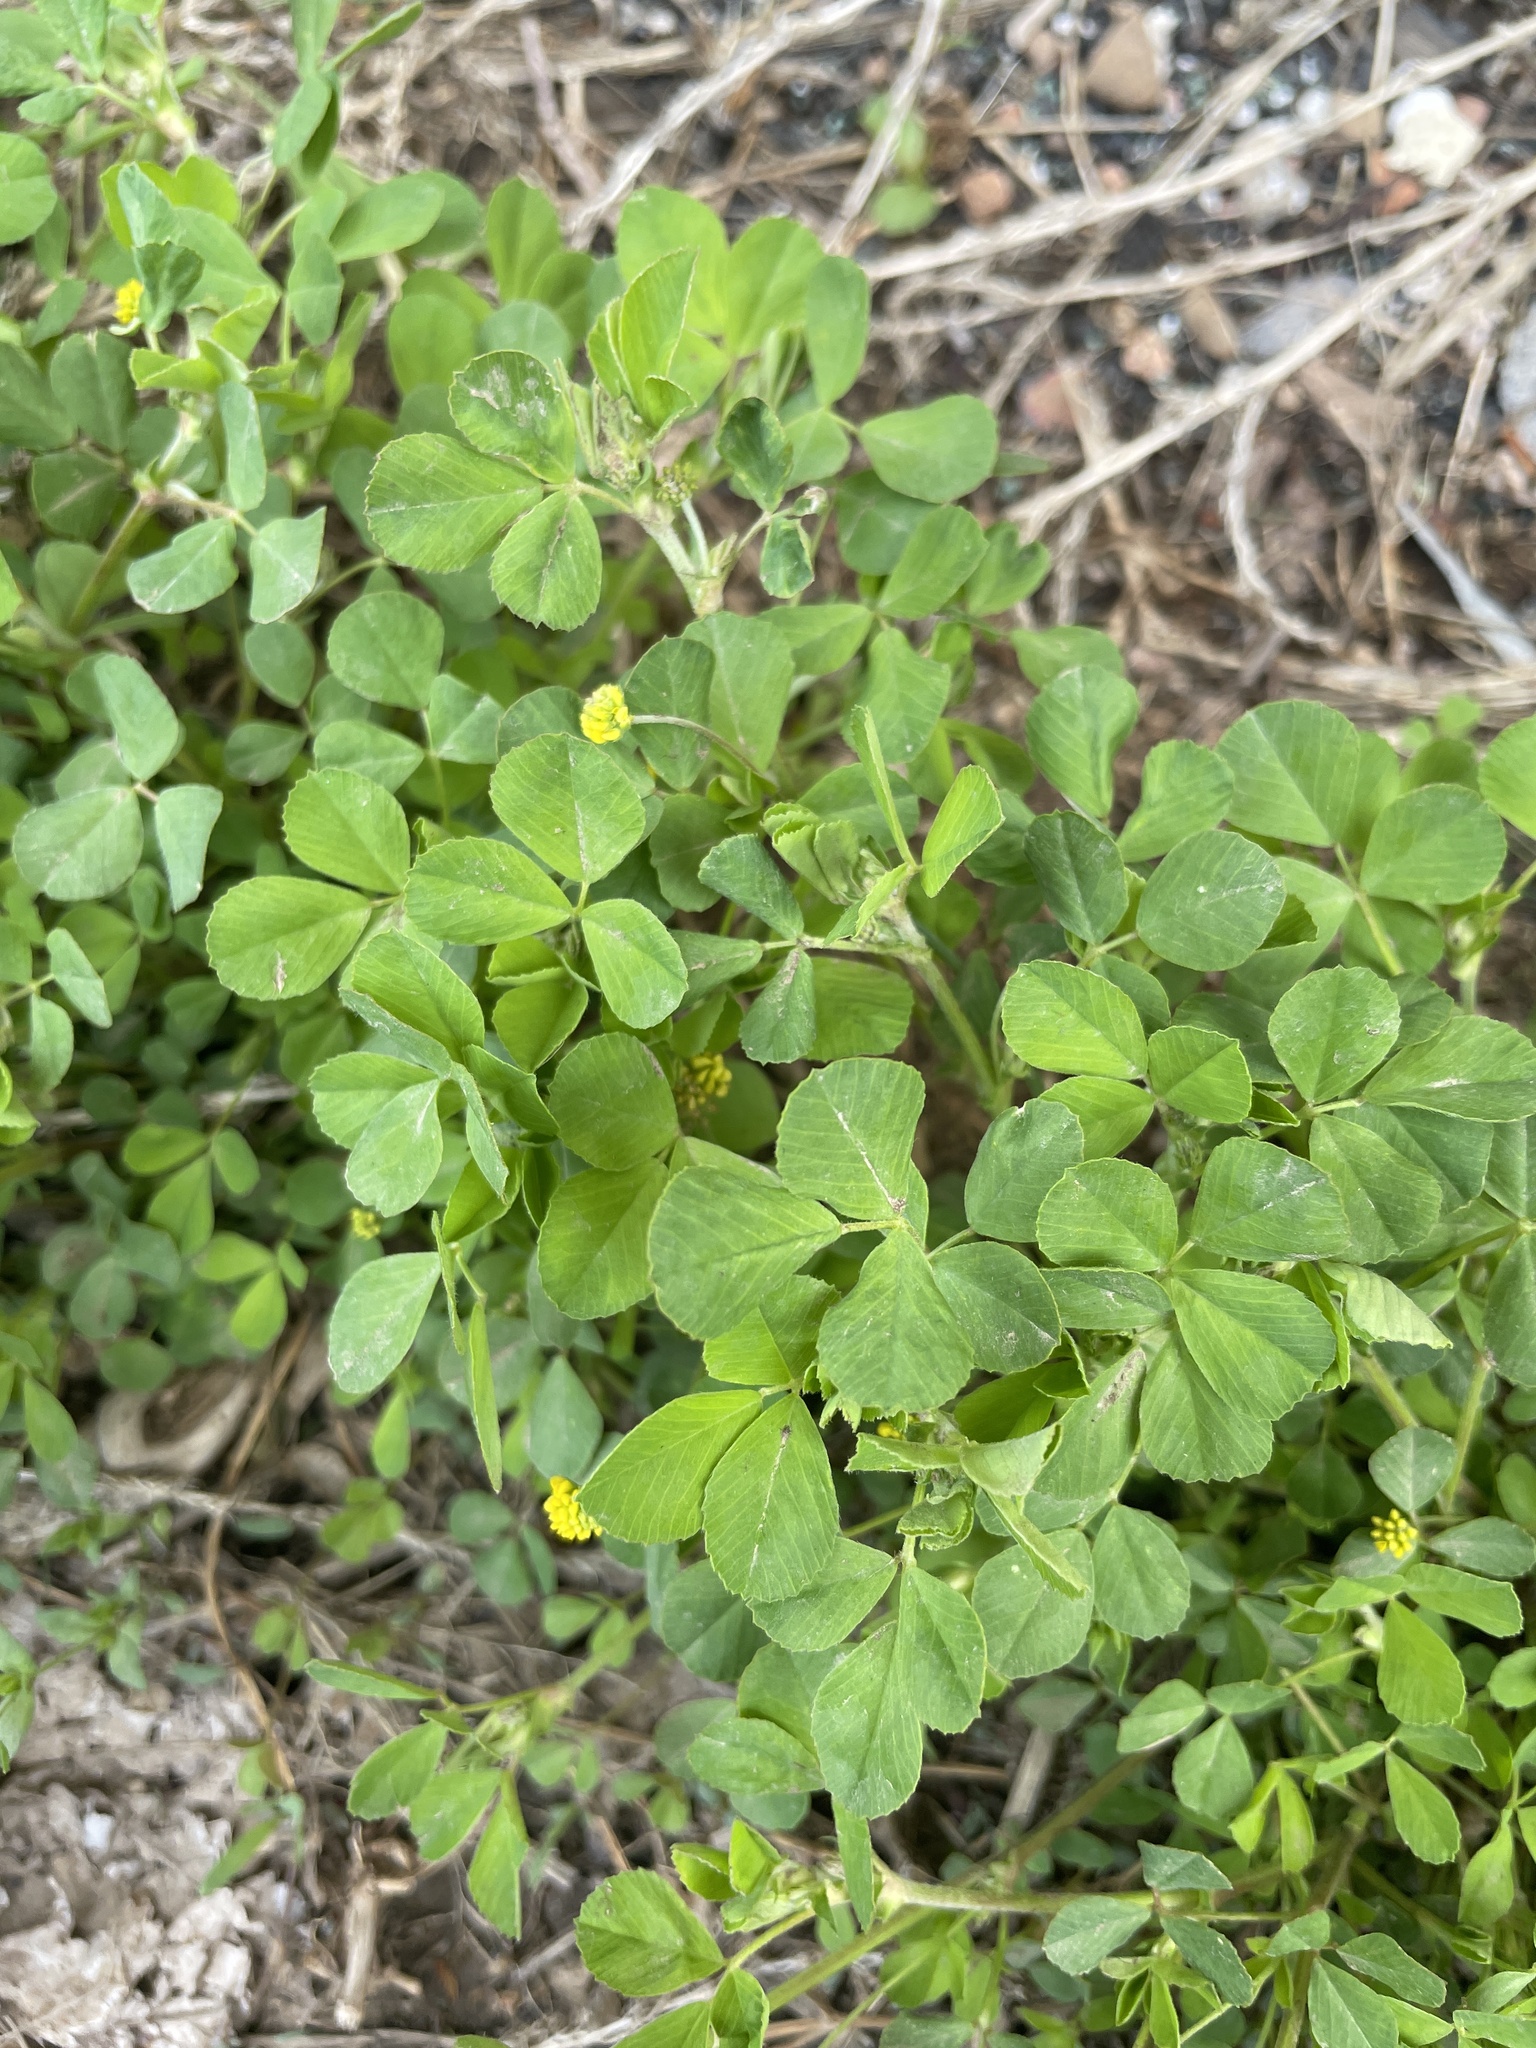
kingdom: Plantae
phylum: Tracheophyta
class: Magnoliopsida
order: Fabales
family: Fabaceae
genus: Medicago
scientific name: Medicago lupulina
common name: Black medick
